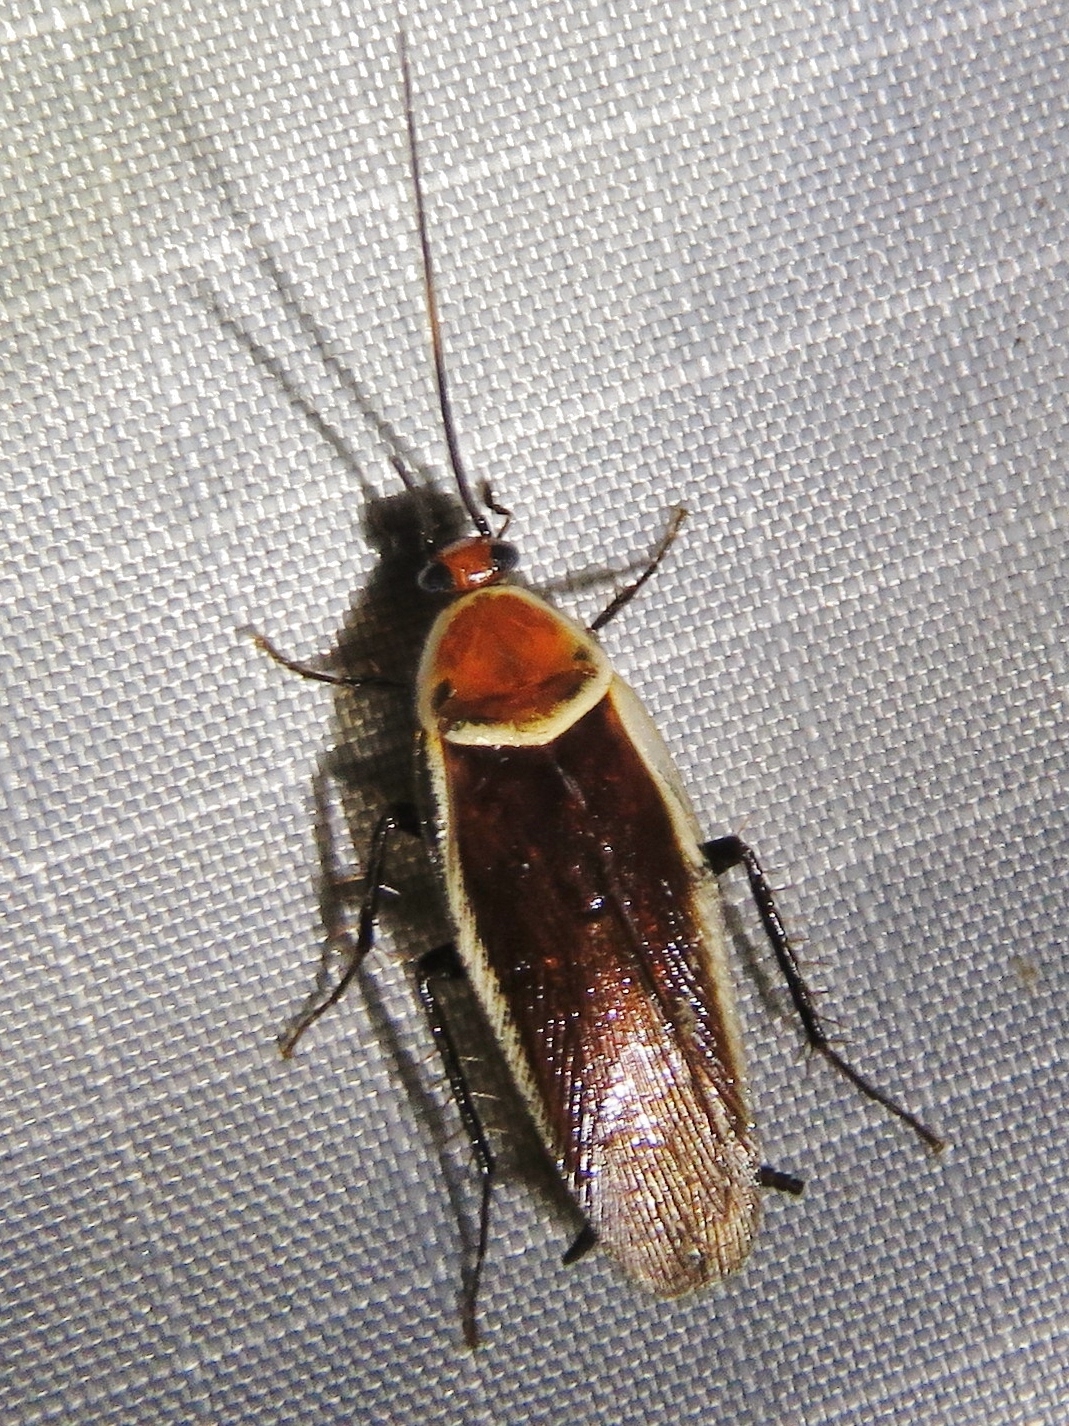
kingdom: Animalia
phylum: Arthropoda
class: Insecta
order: Blattodea
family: Ectobiidae
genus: Pseudomops
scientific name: Pseudomops septentrionalis
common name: Pale-bordered field cockroach
